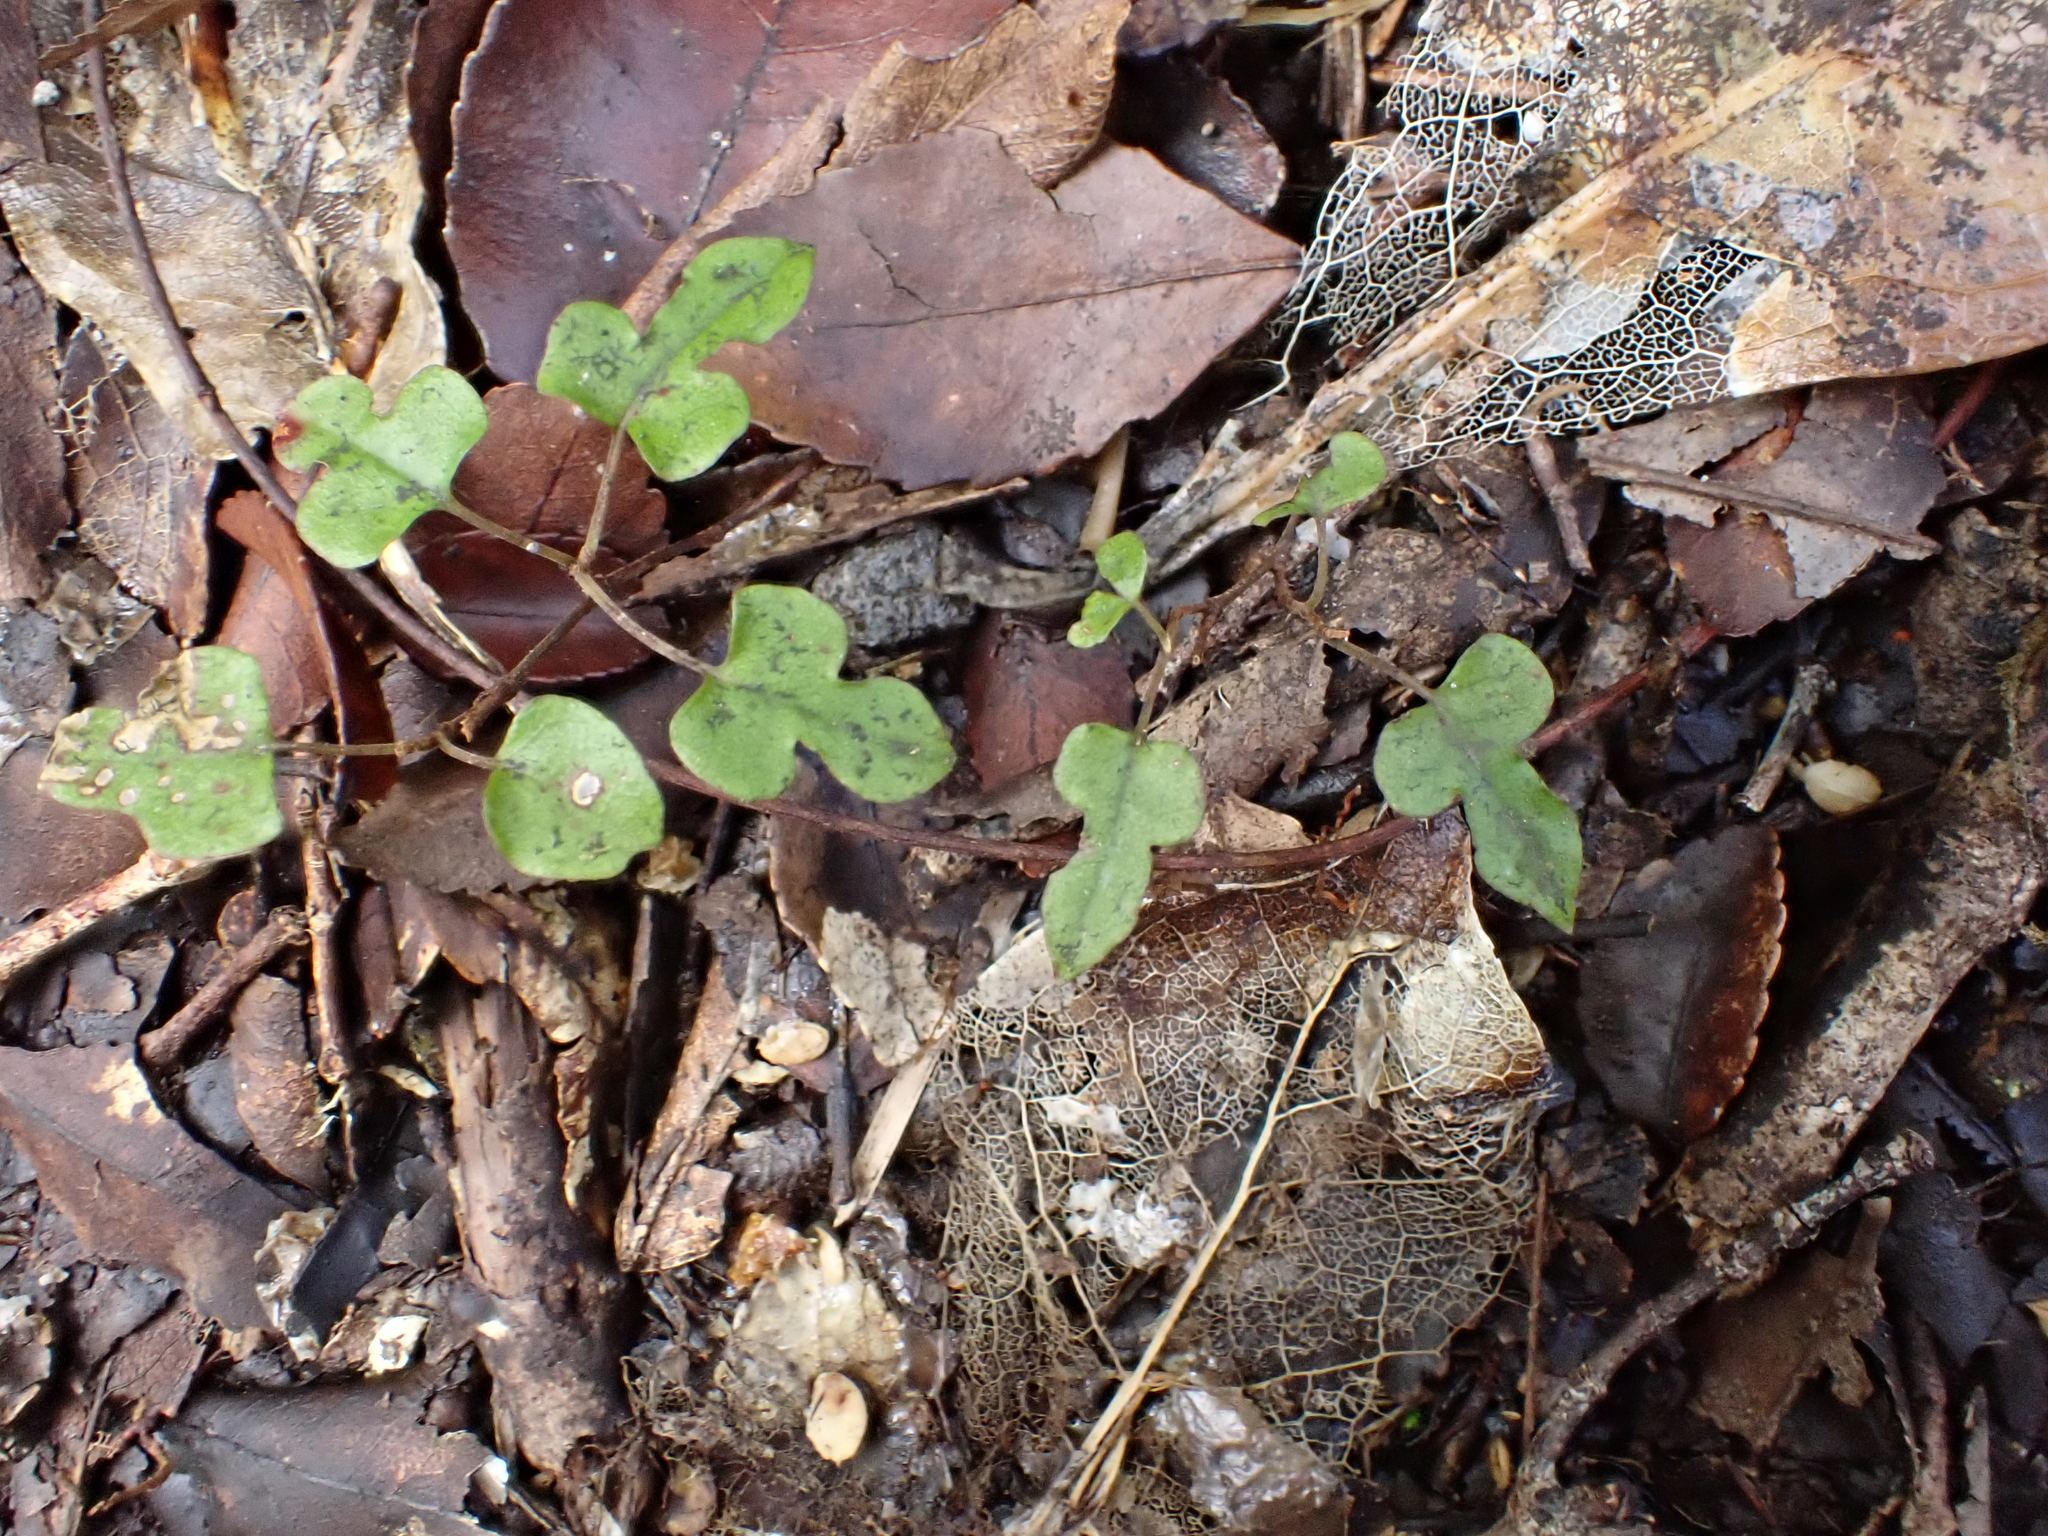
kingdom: Plantae
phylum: Tracheophyta
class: Magnoliopsida
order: Caryophyllales
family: Polygonaceae
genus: Muehlenbeckia
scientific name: Muehlenbeckia australis
